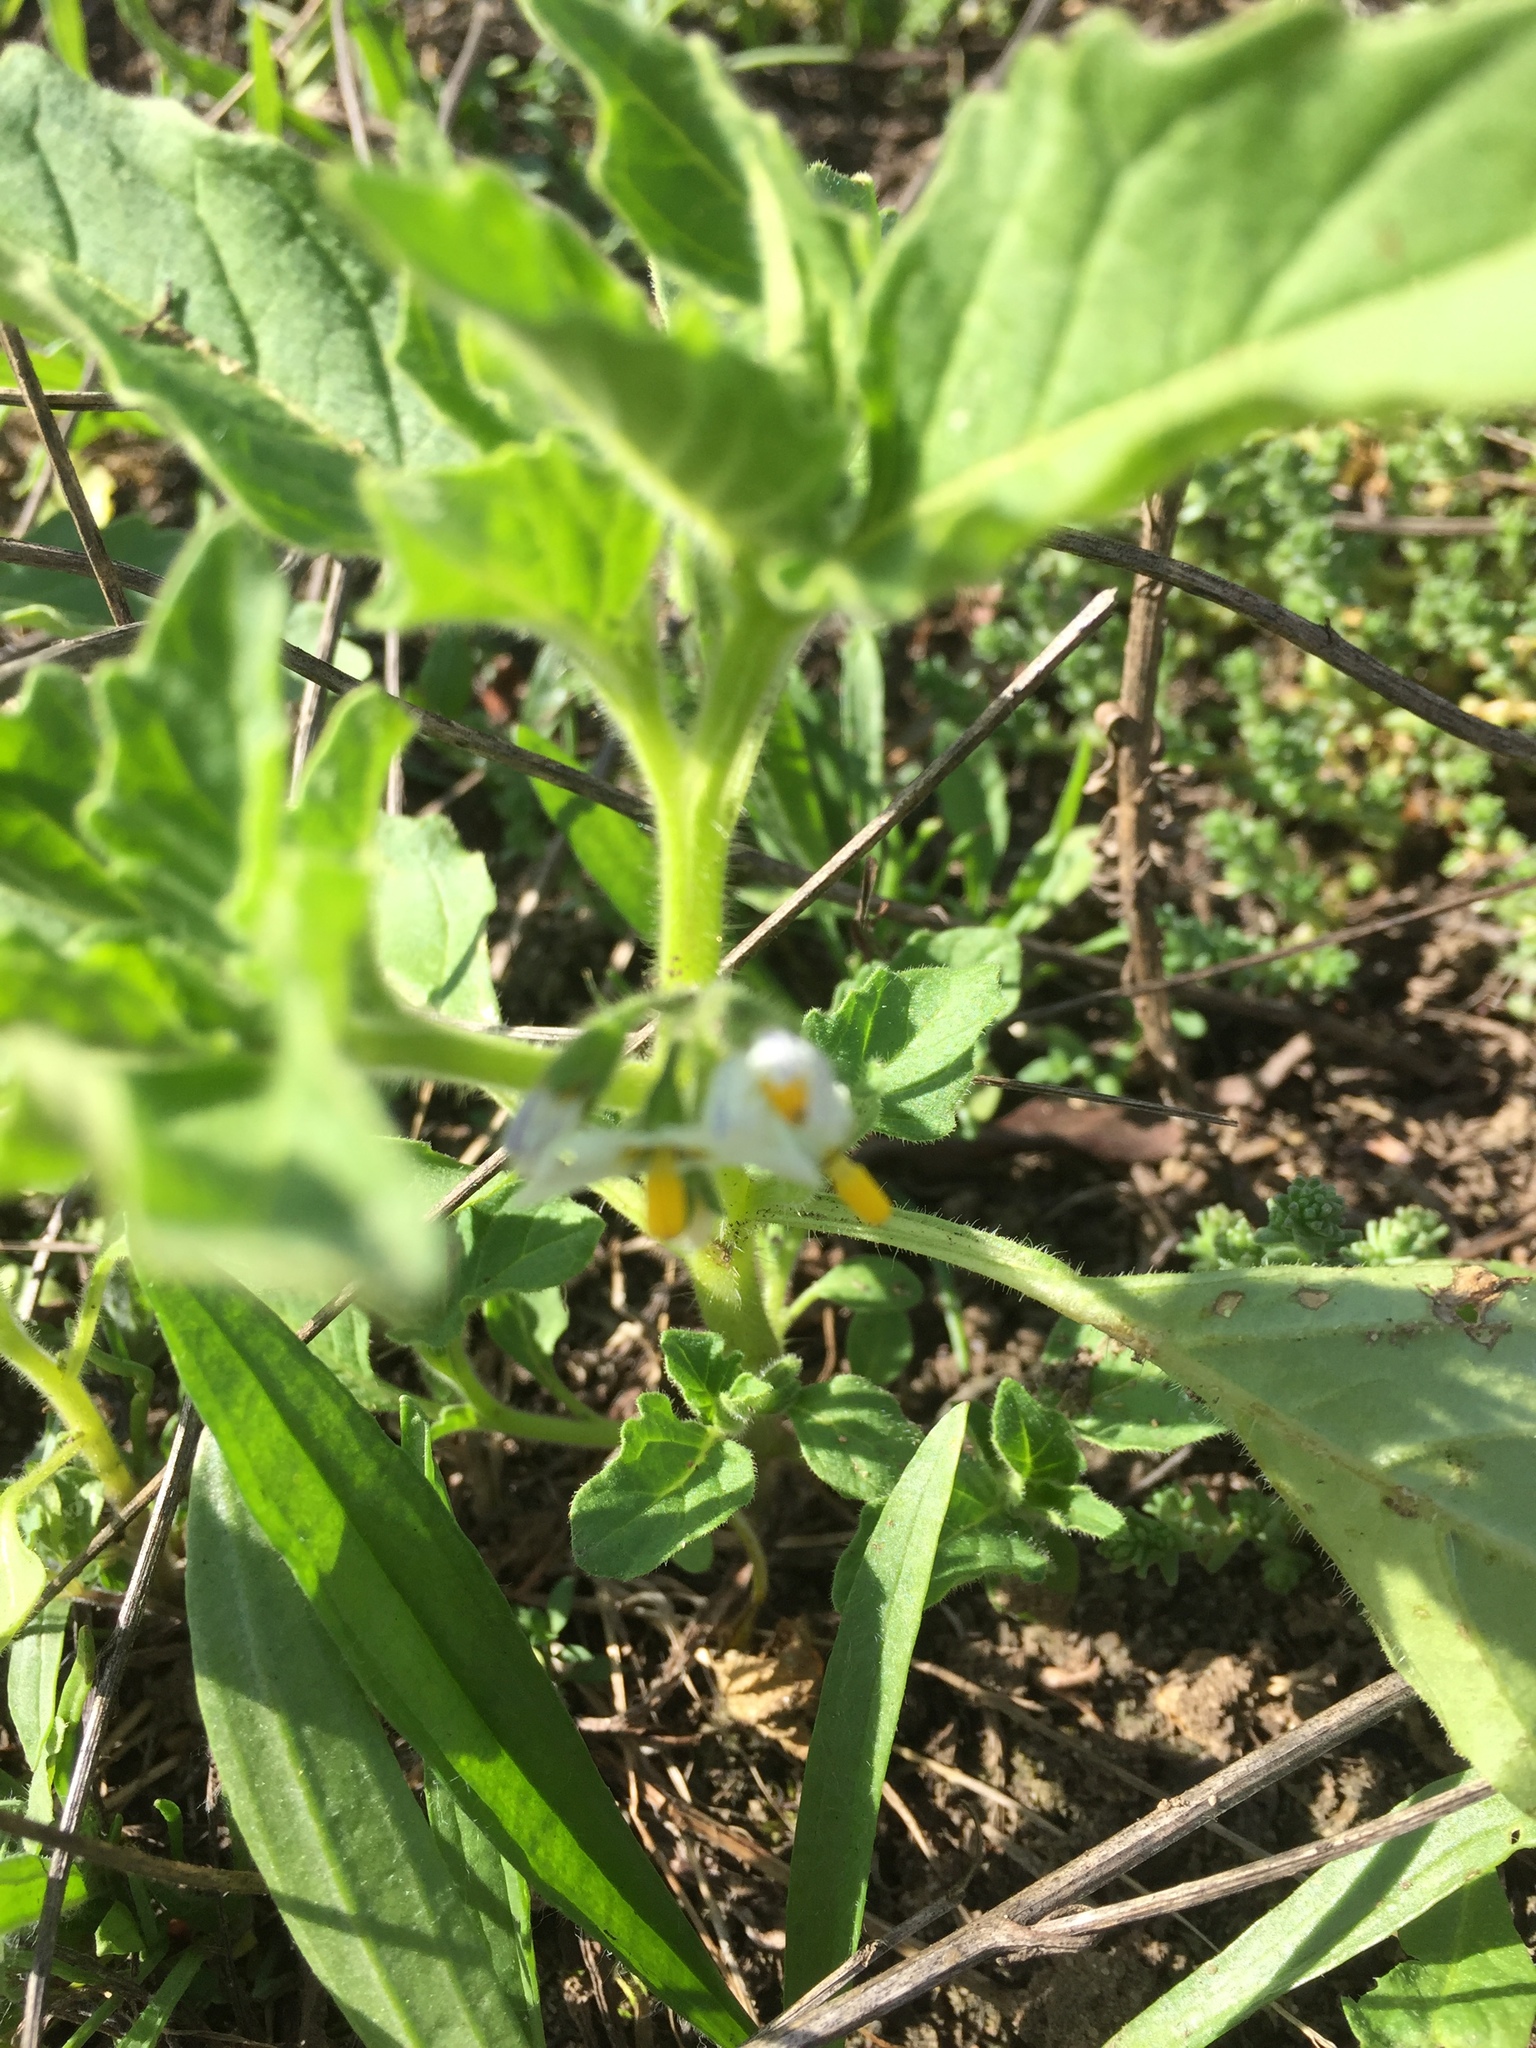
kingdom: Plantae
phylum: Tracheophyta
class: Magnoliopsida
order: Solanales
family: Solanaceae
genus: Solanum
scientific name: Solanum nitidibaccatum
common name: Hairy nightshade
